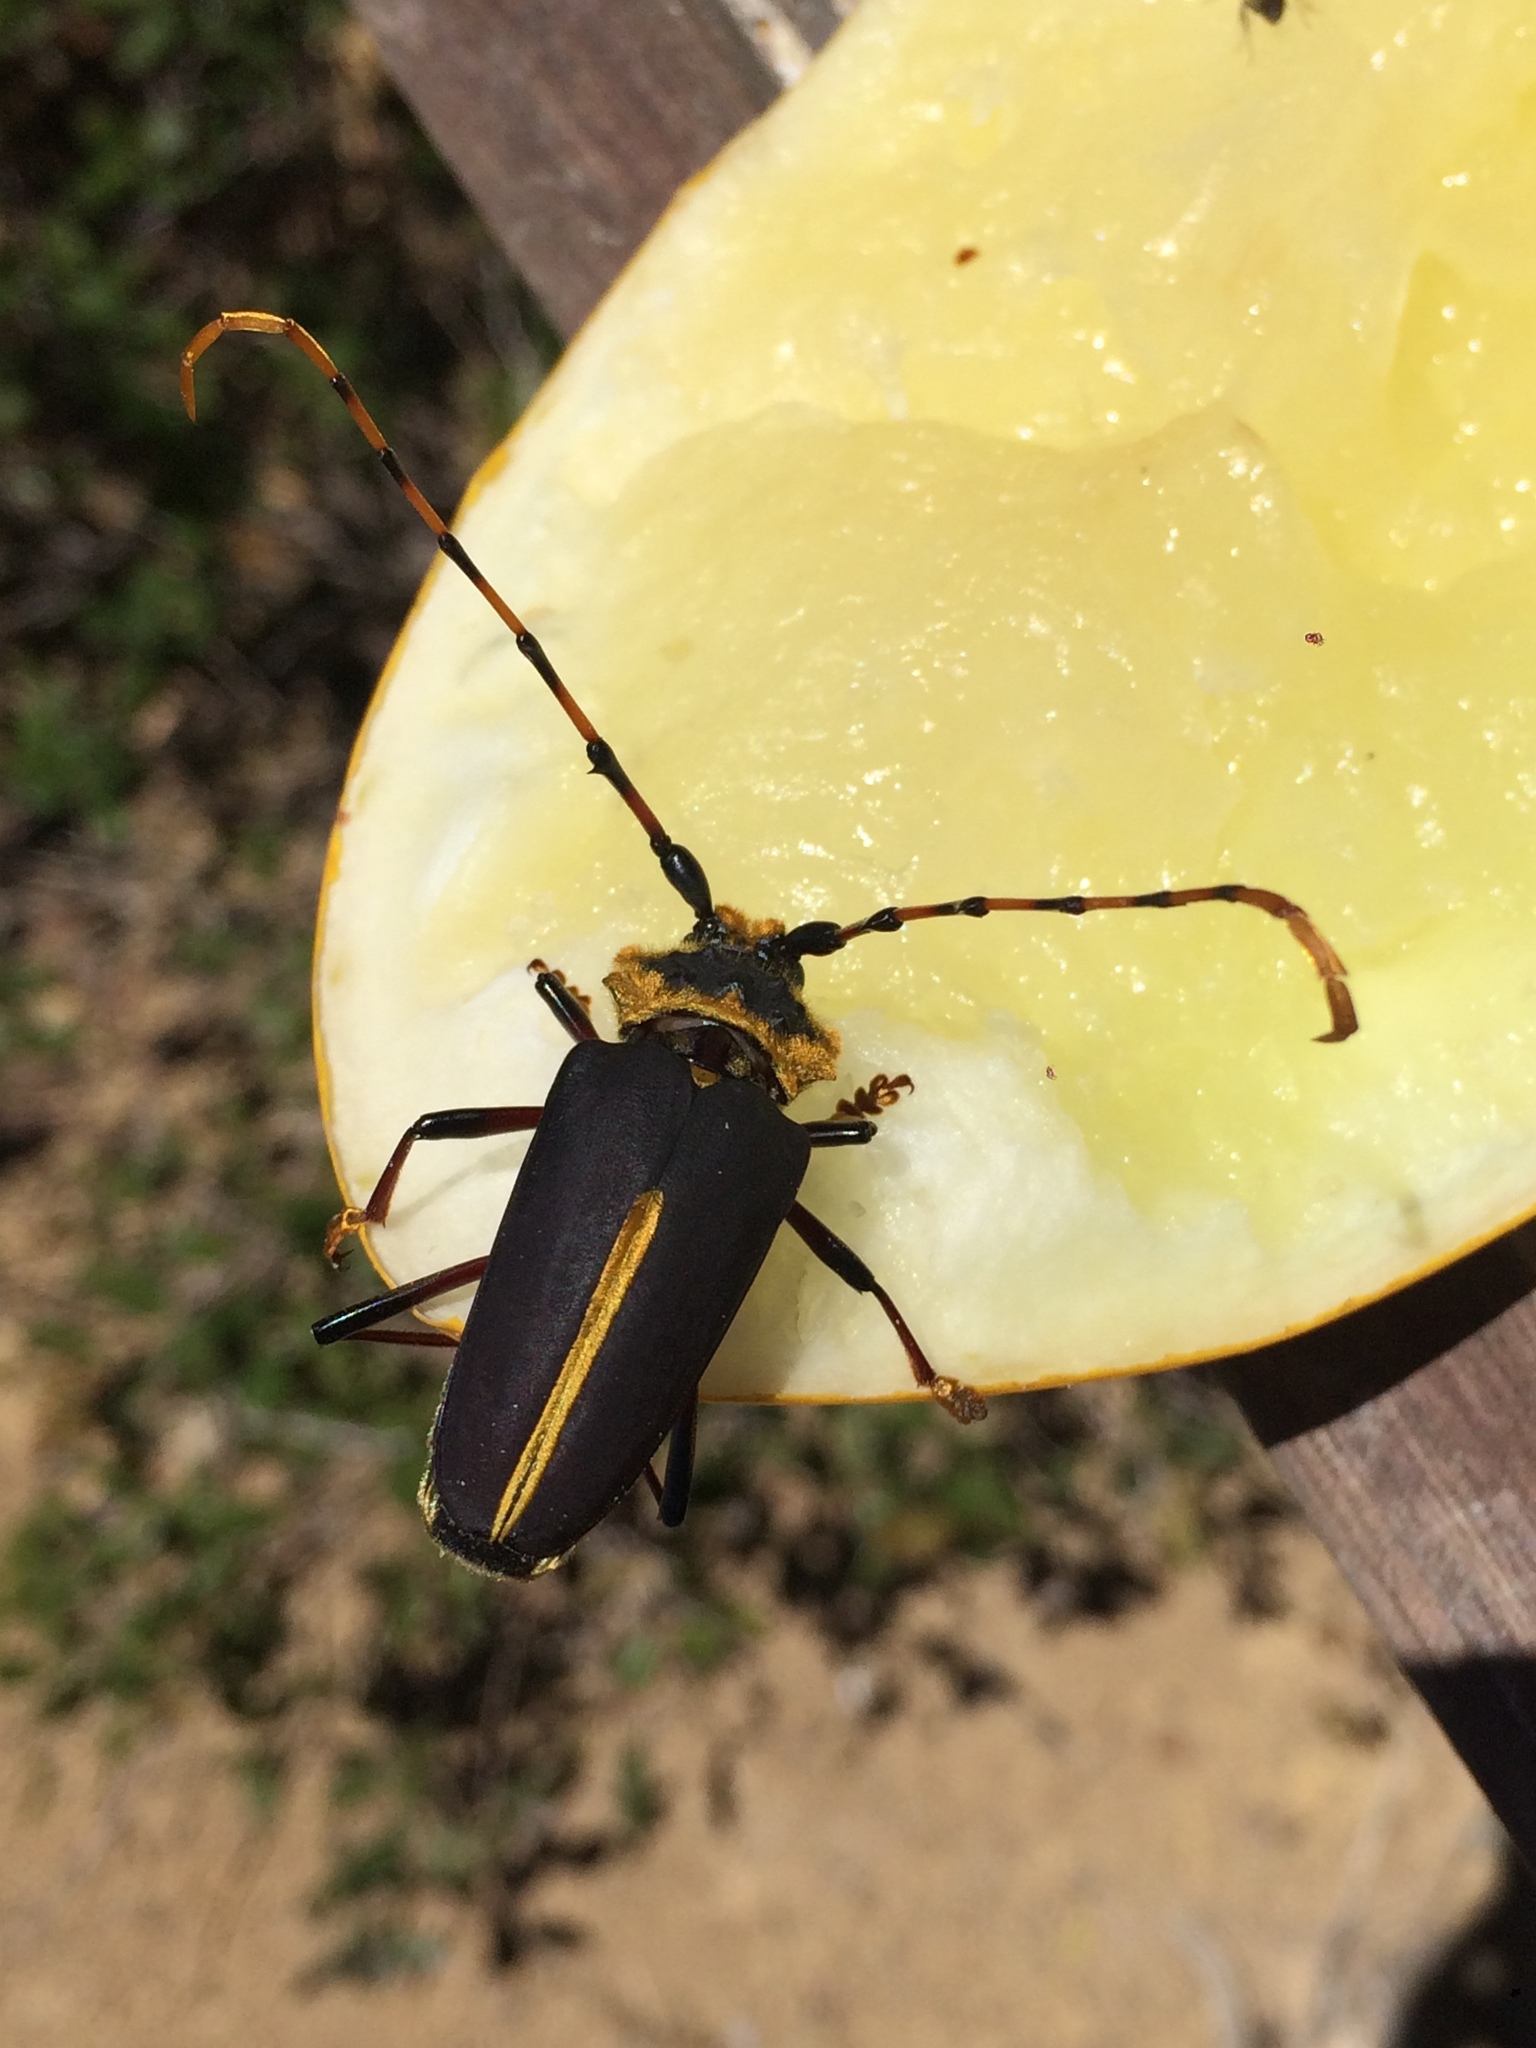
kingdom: Animalia
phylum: Arthropoda
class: Insecta
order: Coleoptera
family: Cerambycidae
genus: Dorcacerus
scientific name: Dorcacerus barbatus
